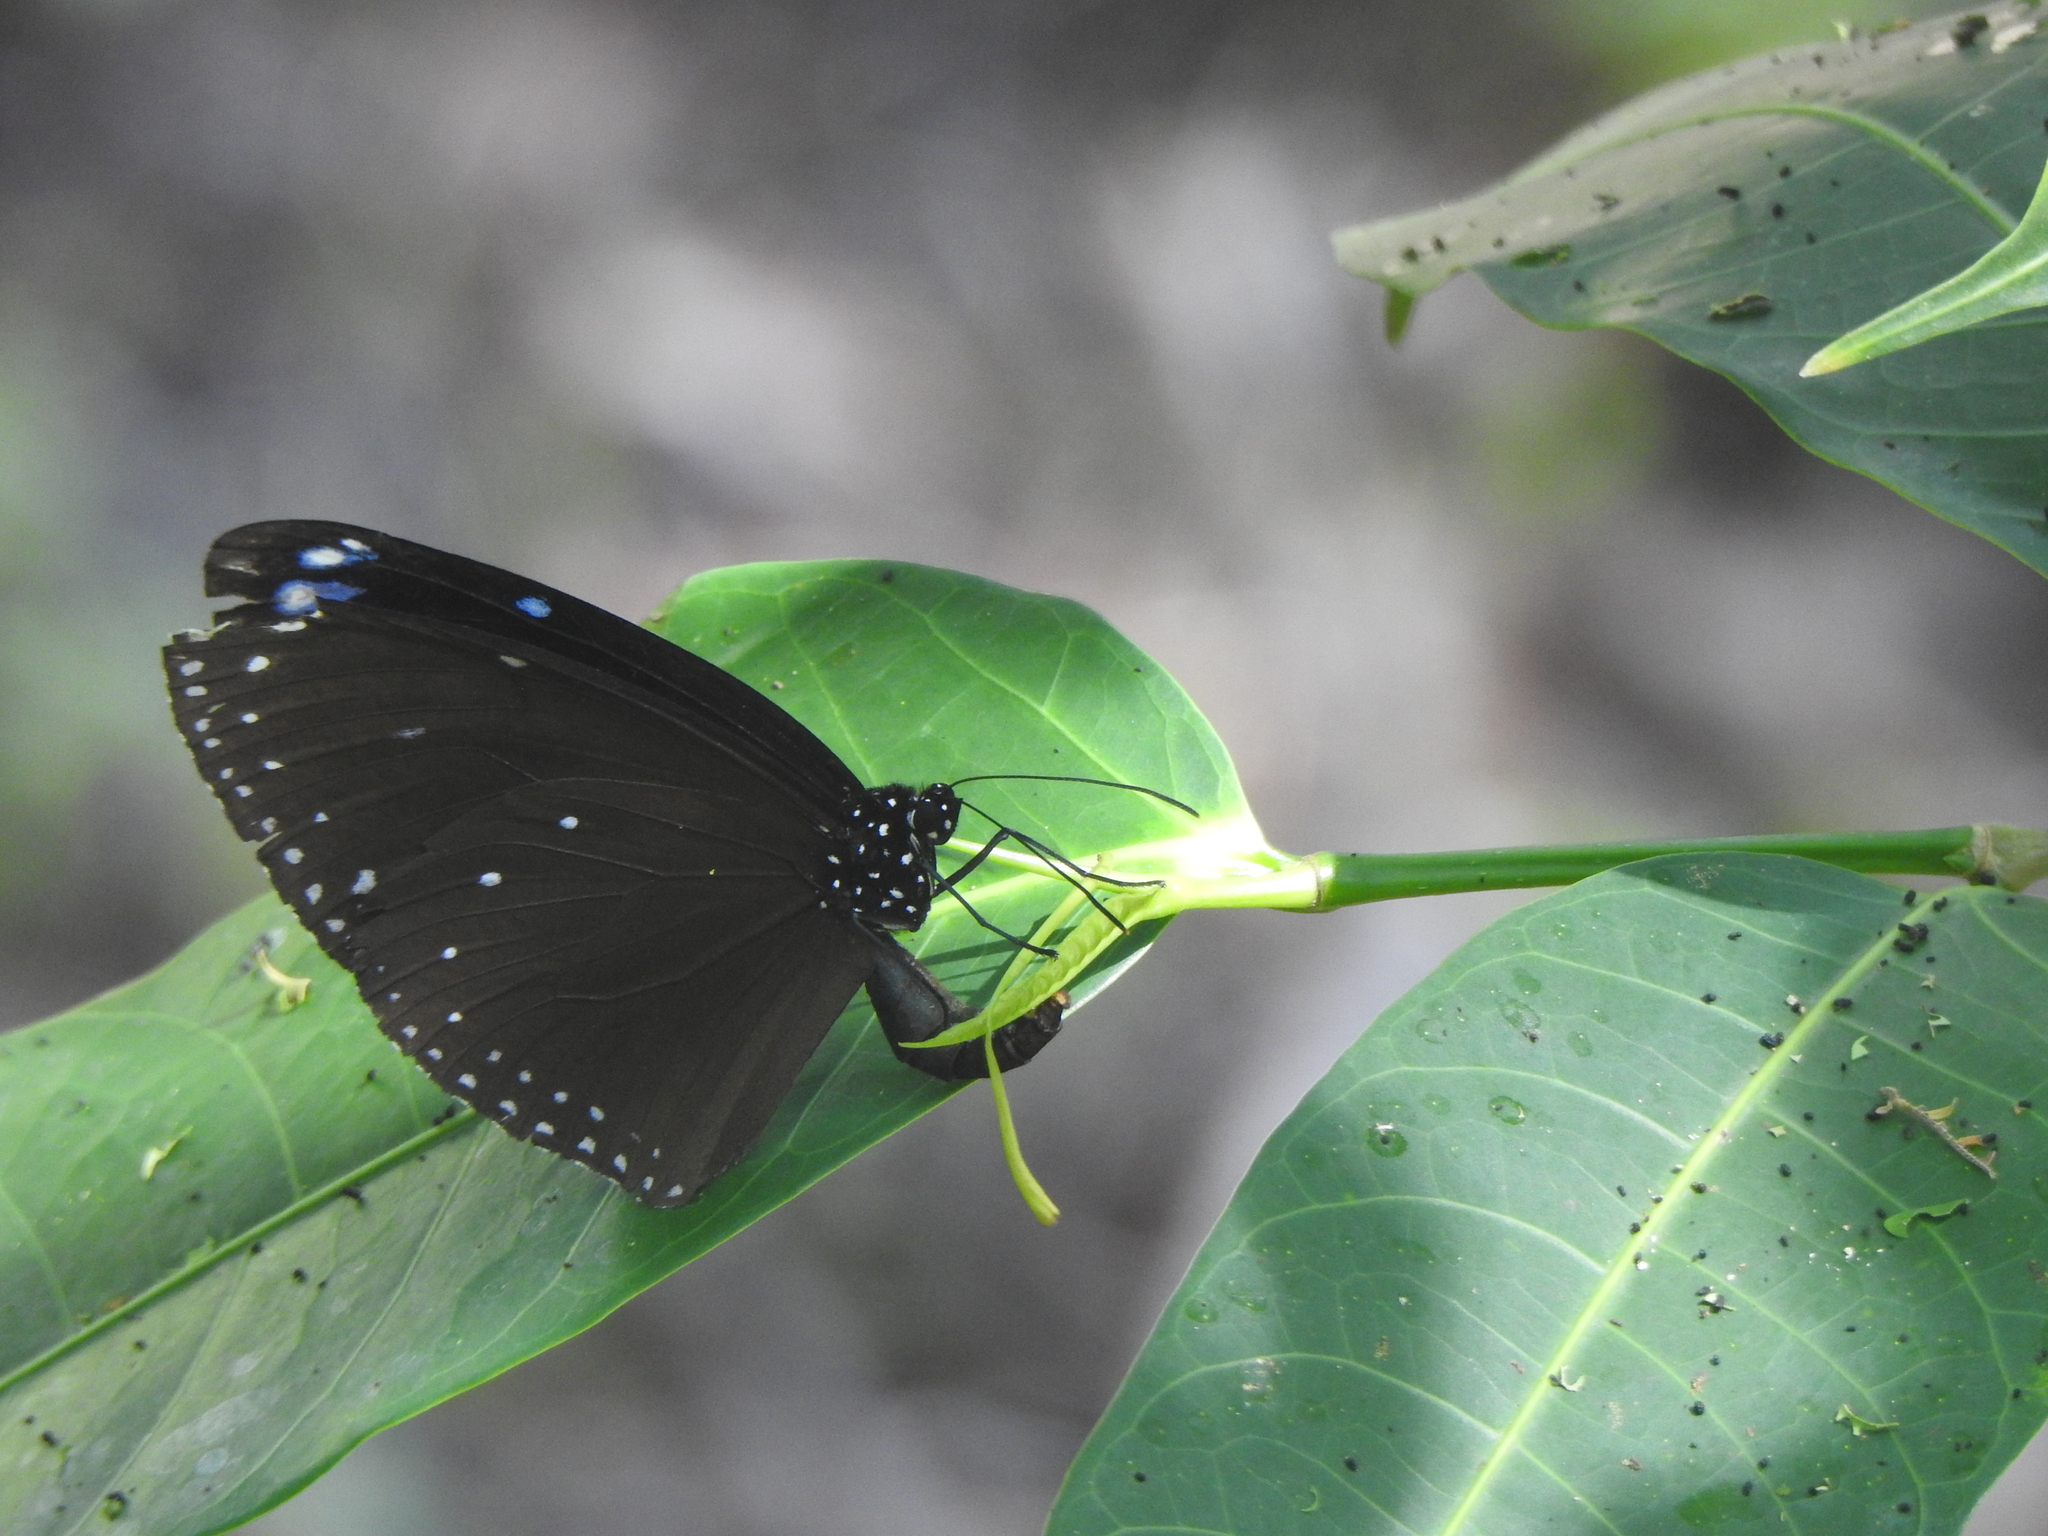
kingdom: Animalia
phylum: Arthropoda
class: Insecta
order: Lepidoptera
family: Nymphalidae
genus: Euploea
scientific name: Euploea eunice
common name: Blue-banded king crow butterfly
